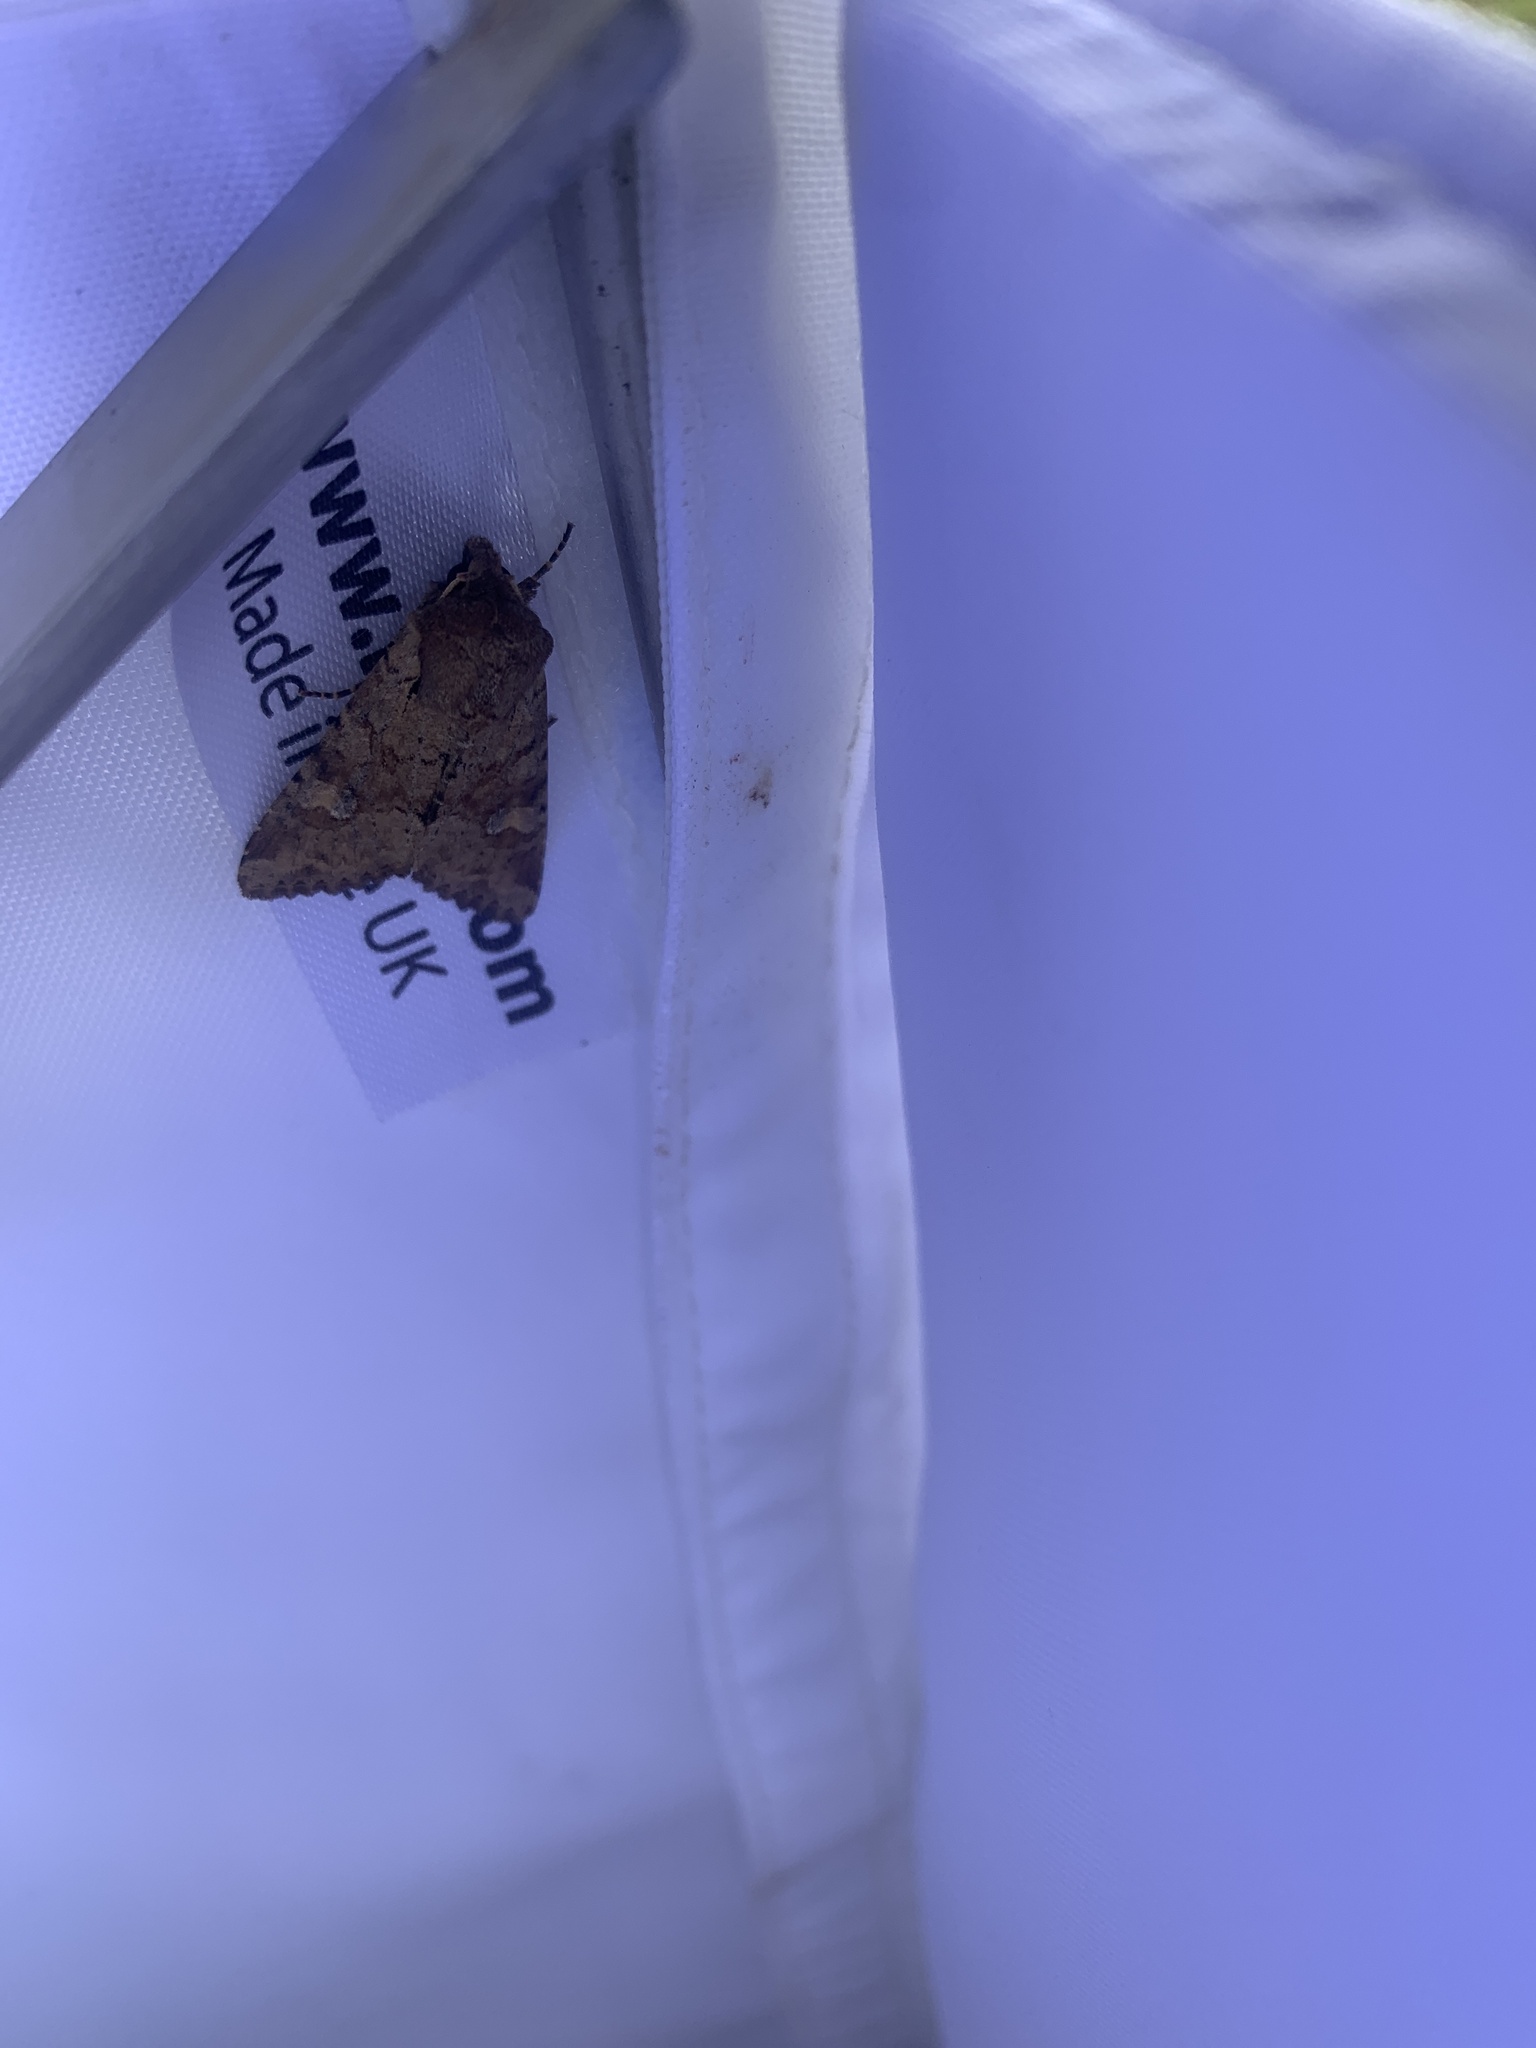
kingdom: Animalia
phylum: Arthropoda
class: Insecta
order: Lepidoptera
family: Noctuidae
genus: Apamea
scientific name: Apamea sordens
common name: Rustic shoulder-knot
